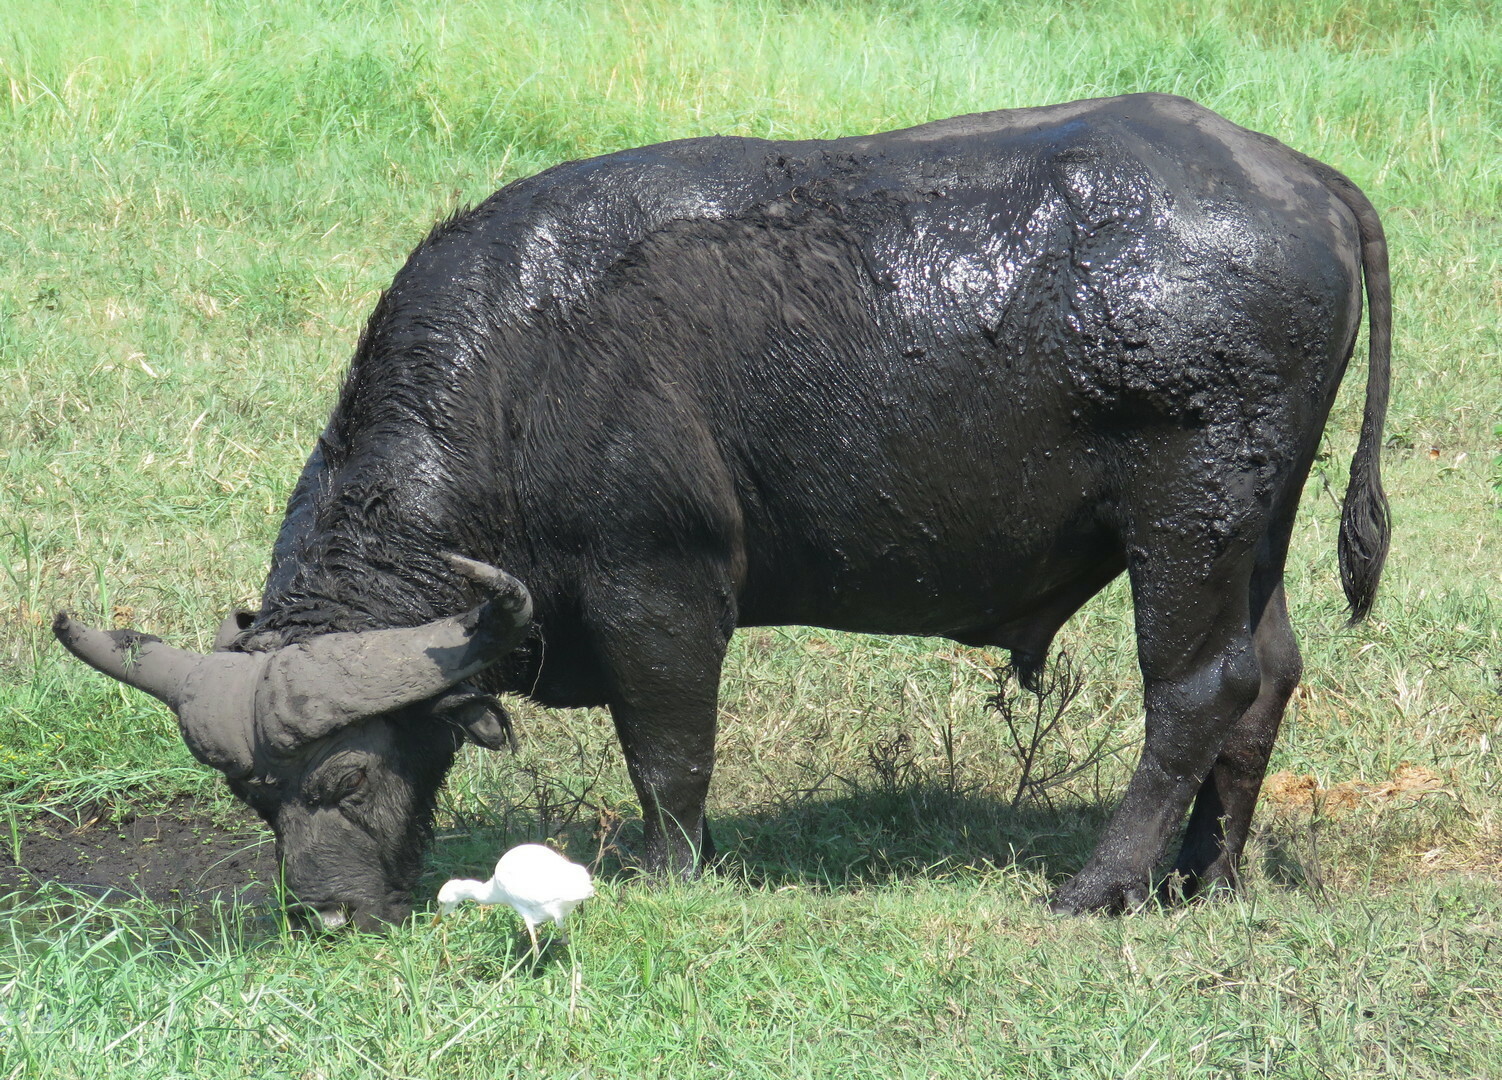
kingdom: Animalia
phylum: Chordata
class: Mammalia
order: Artiodactyla
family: Bovidae
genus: Syncerus
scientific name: Syncerus caffer
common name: African buffalo
